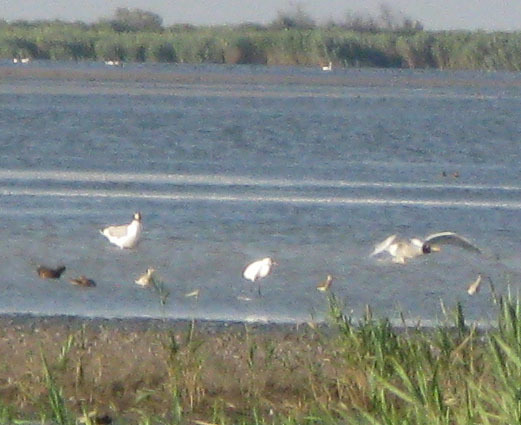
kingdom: Animalia
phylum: Chordata
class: Aves
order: Charadriiformes
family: Laridae
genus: Ichthyaetus
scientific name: Ichthyaetus ichthyaetus
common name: Pallas's gull
